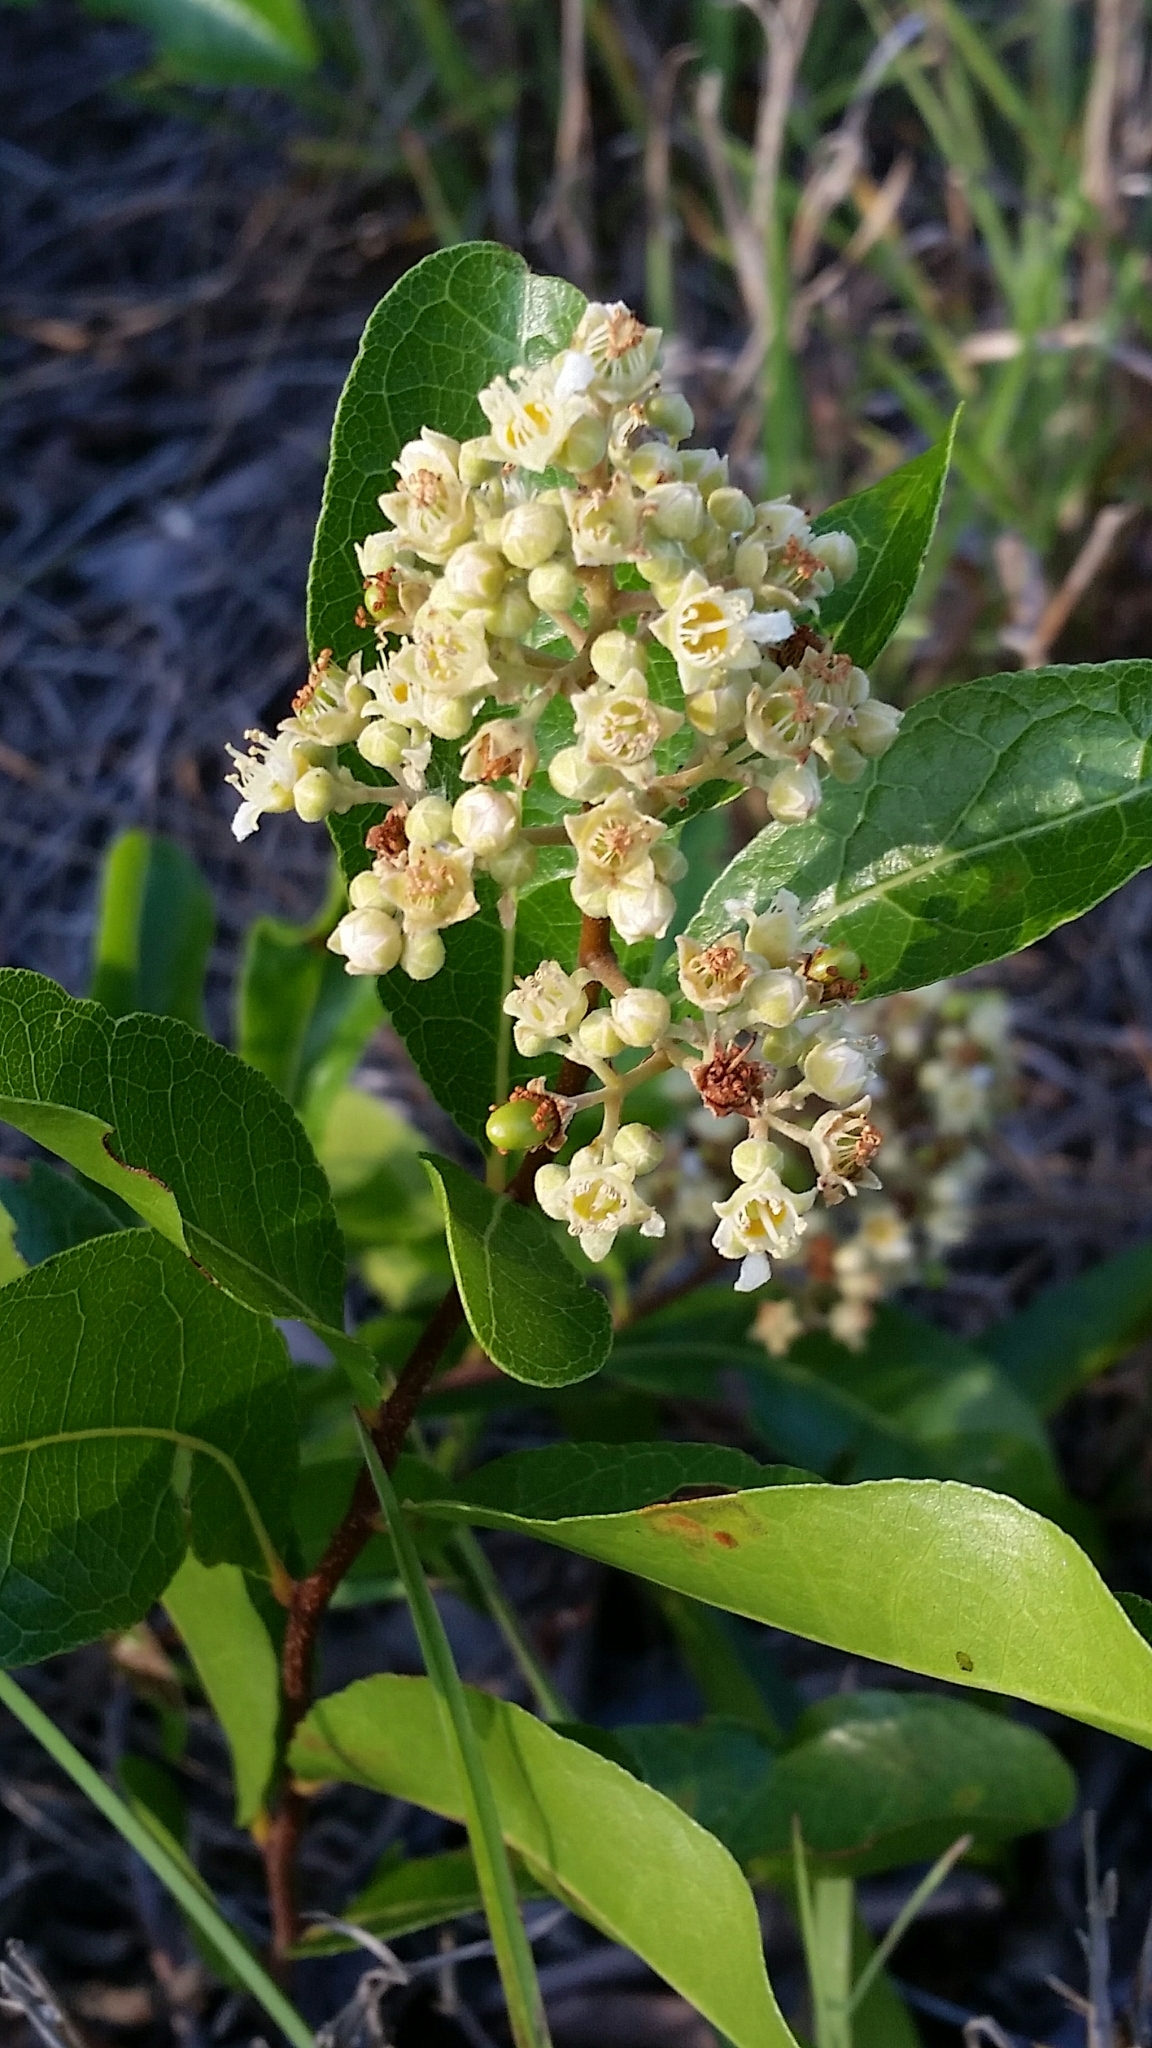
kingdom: Plantae
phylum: Tracheophyta
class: Magnoliopsida
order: Malpighiales
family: Chrysobalanaceae
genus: Geobalanus
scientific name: Geobalanus oblongifolius
